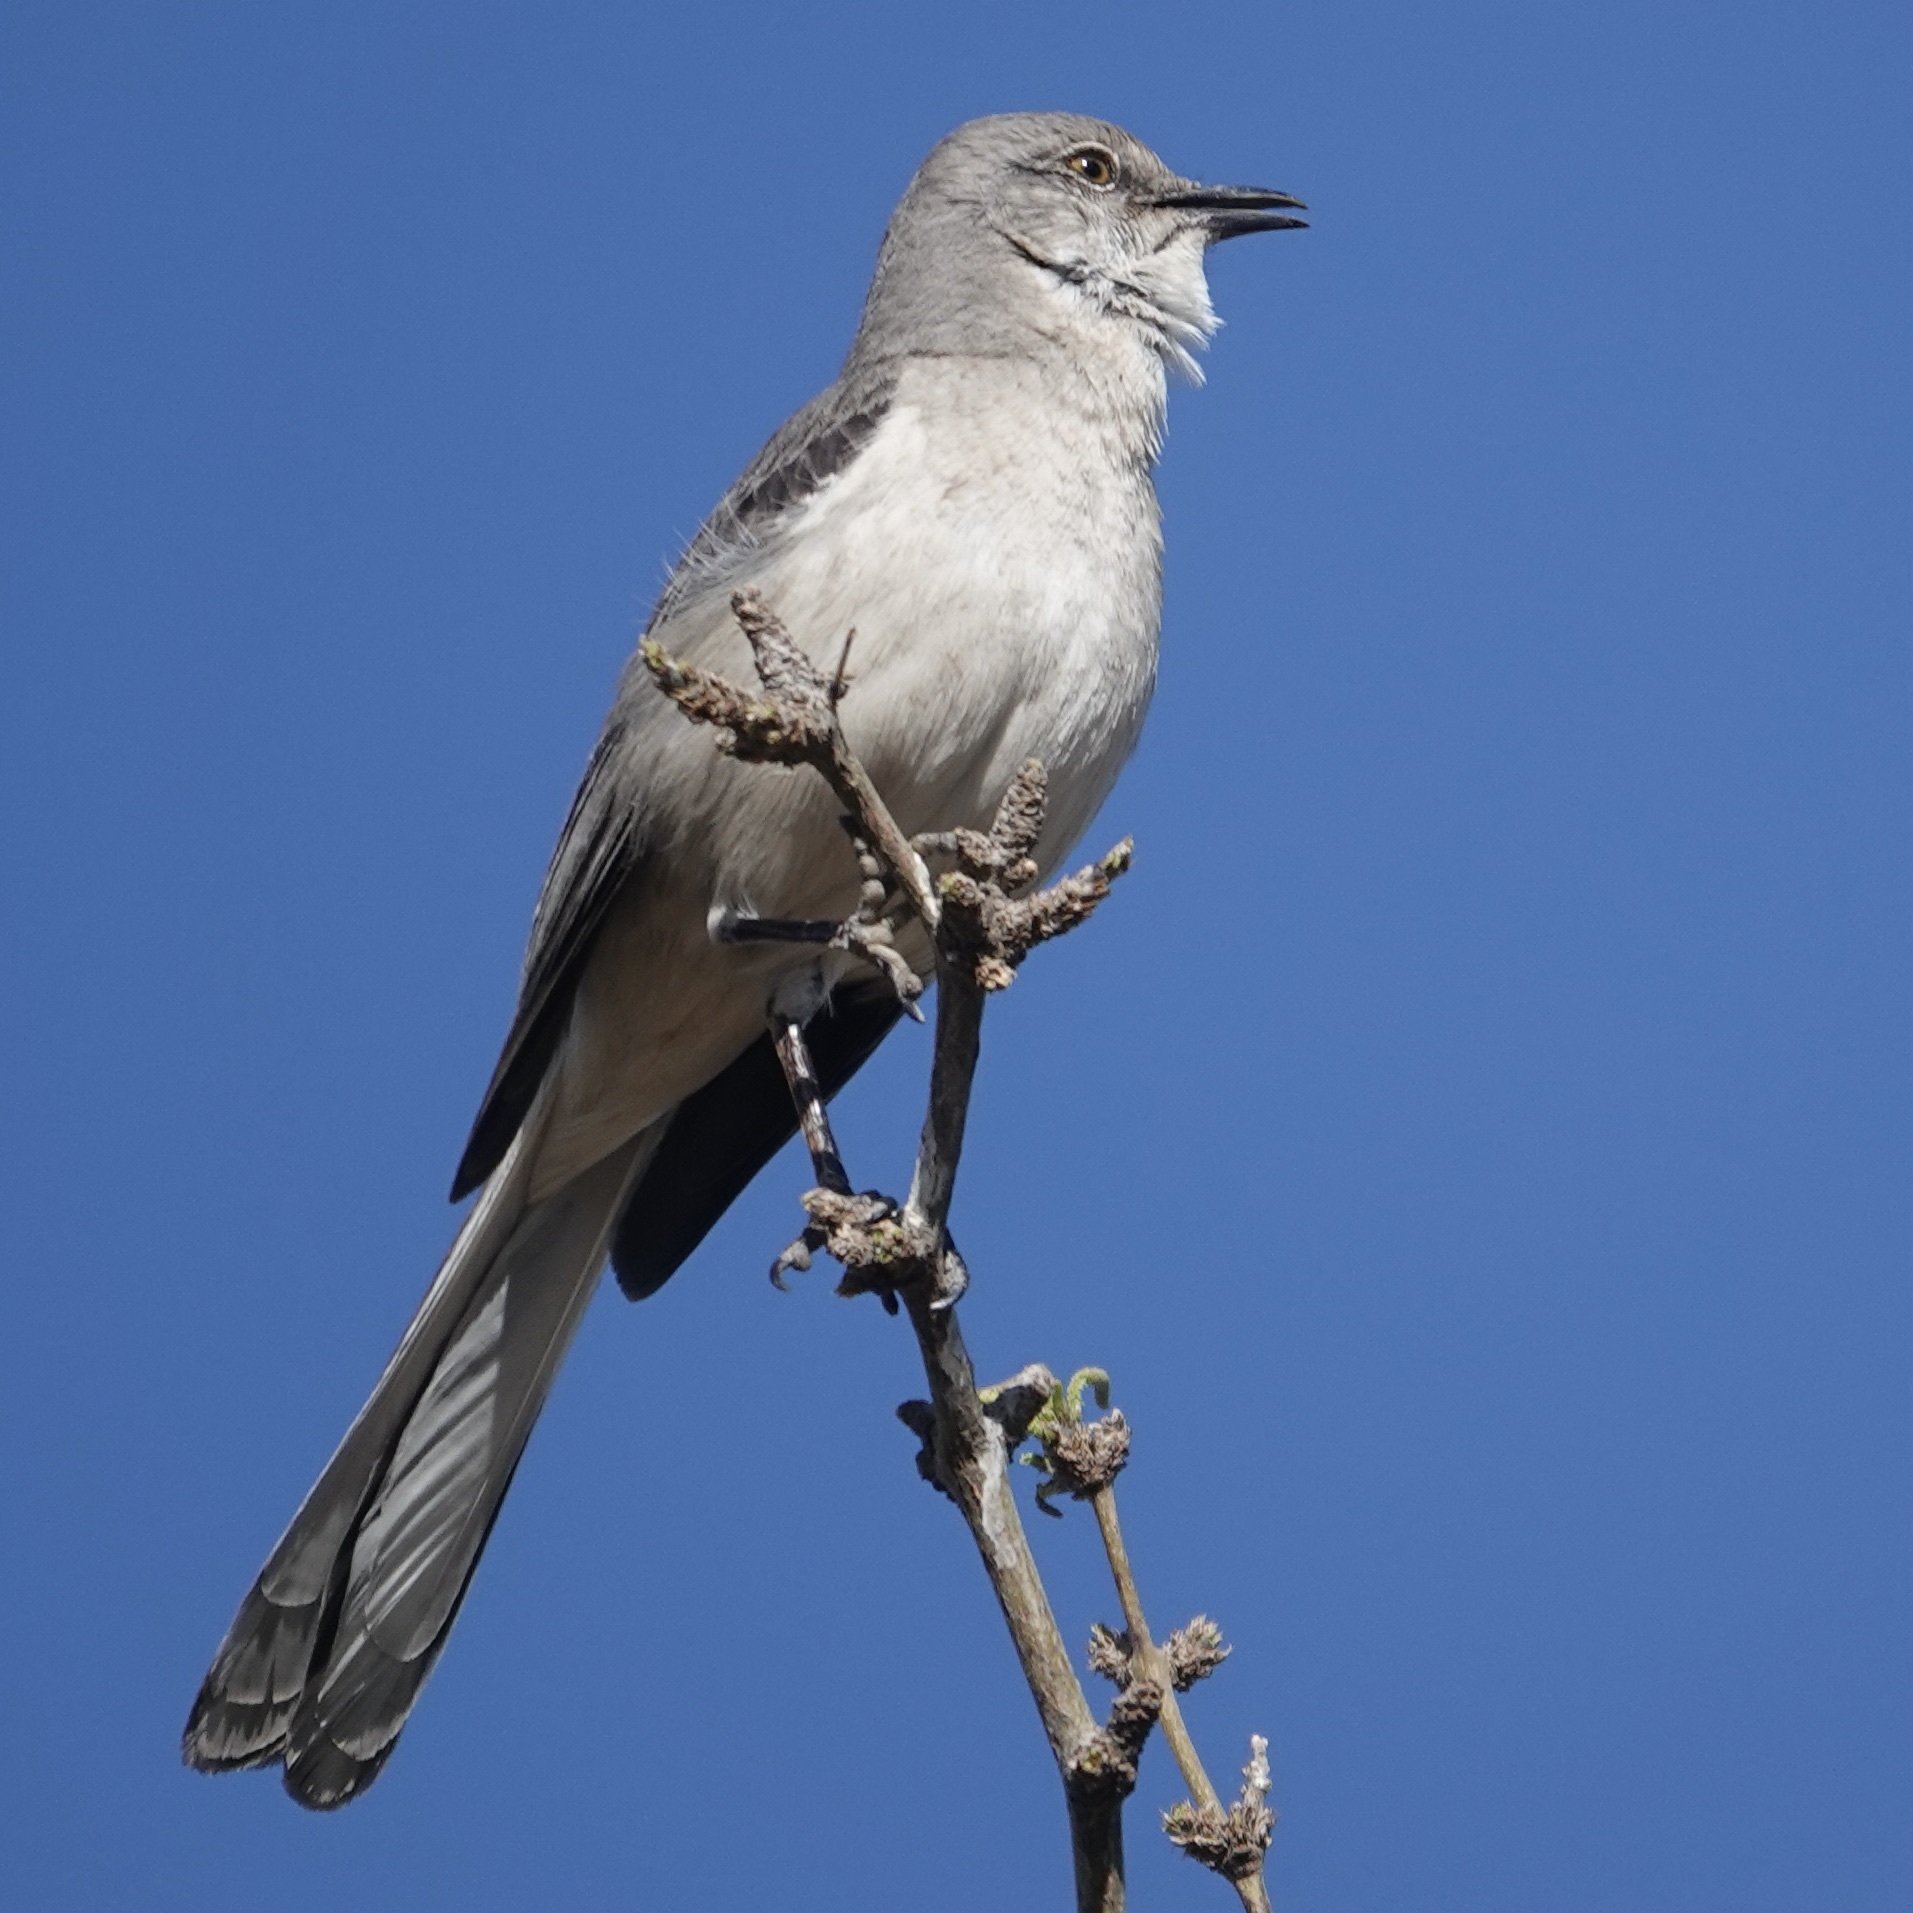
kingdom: Animalia
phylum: Chordata
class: Aves
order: Passeriformes
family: Mimidae
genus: Mimus
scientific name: Mimus polyglottos
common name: Northern mockingbird
